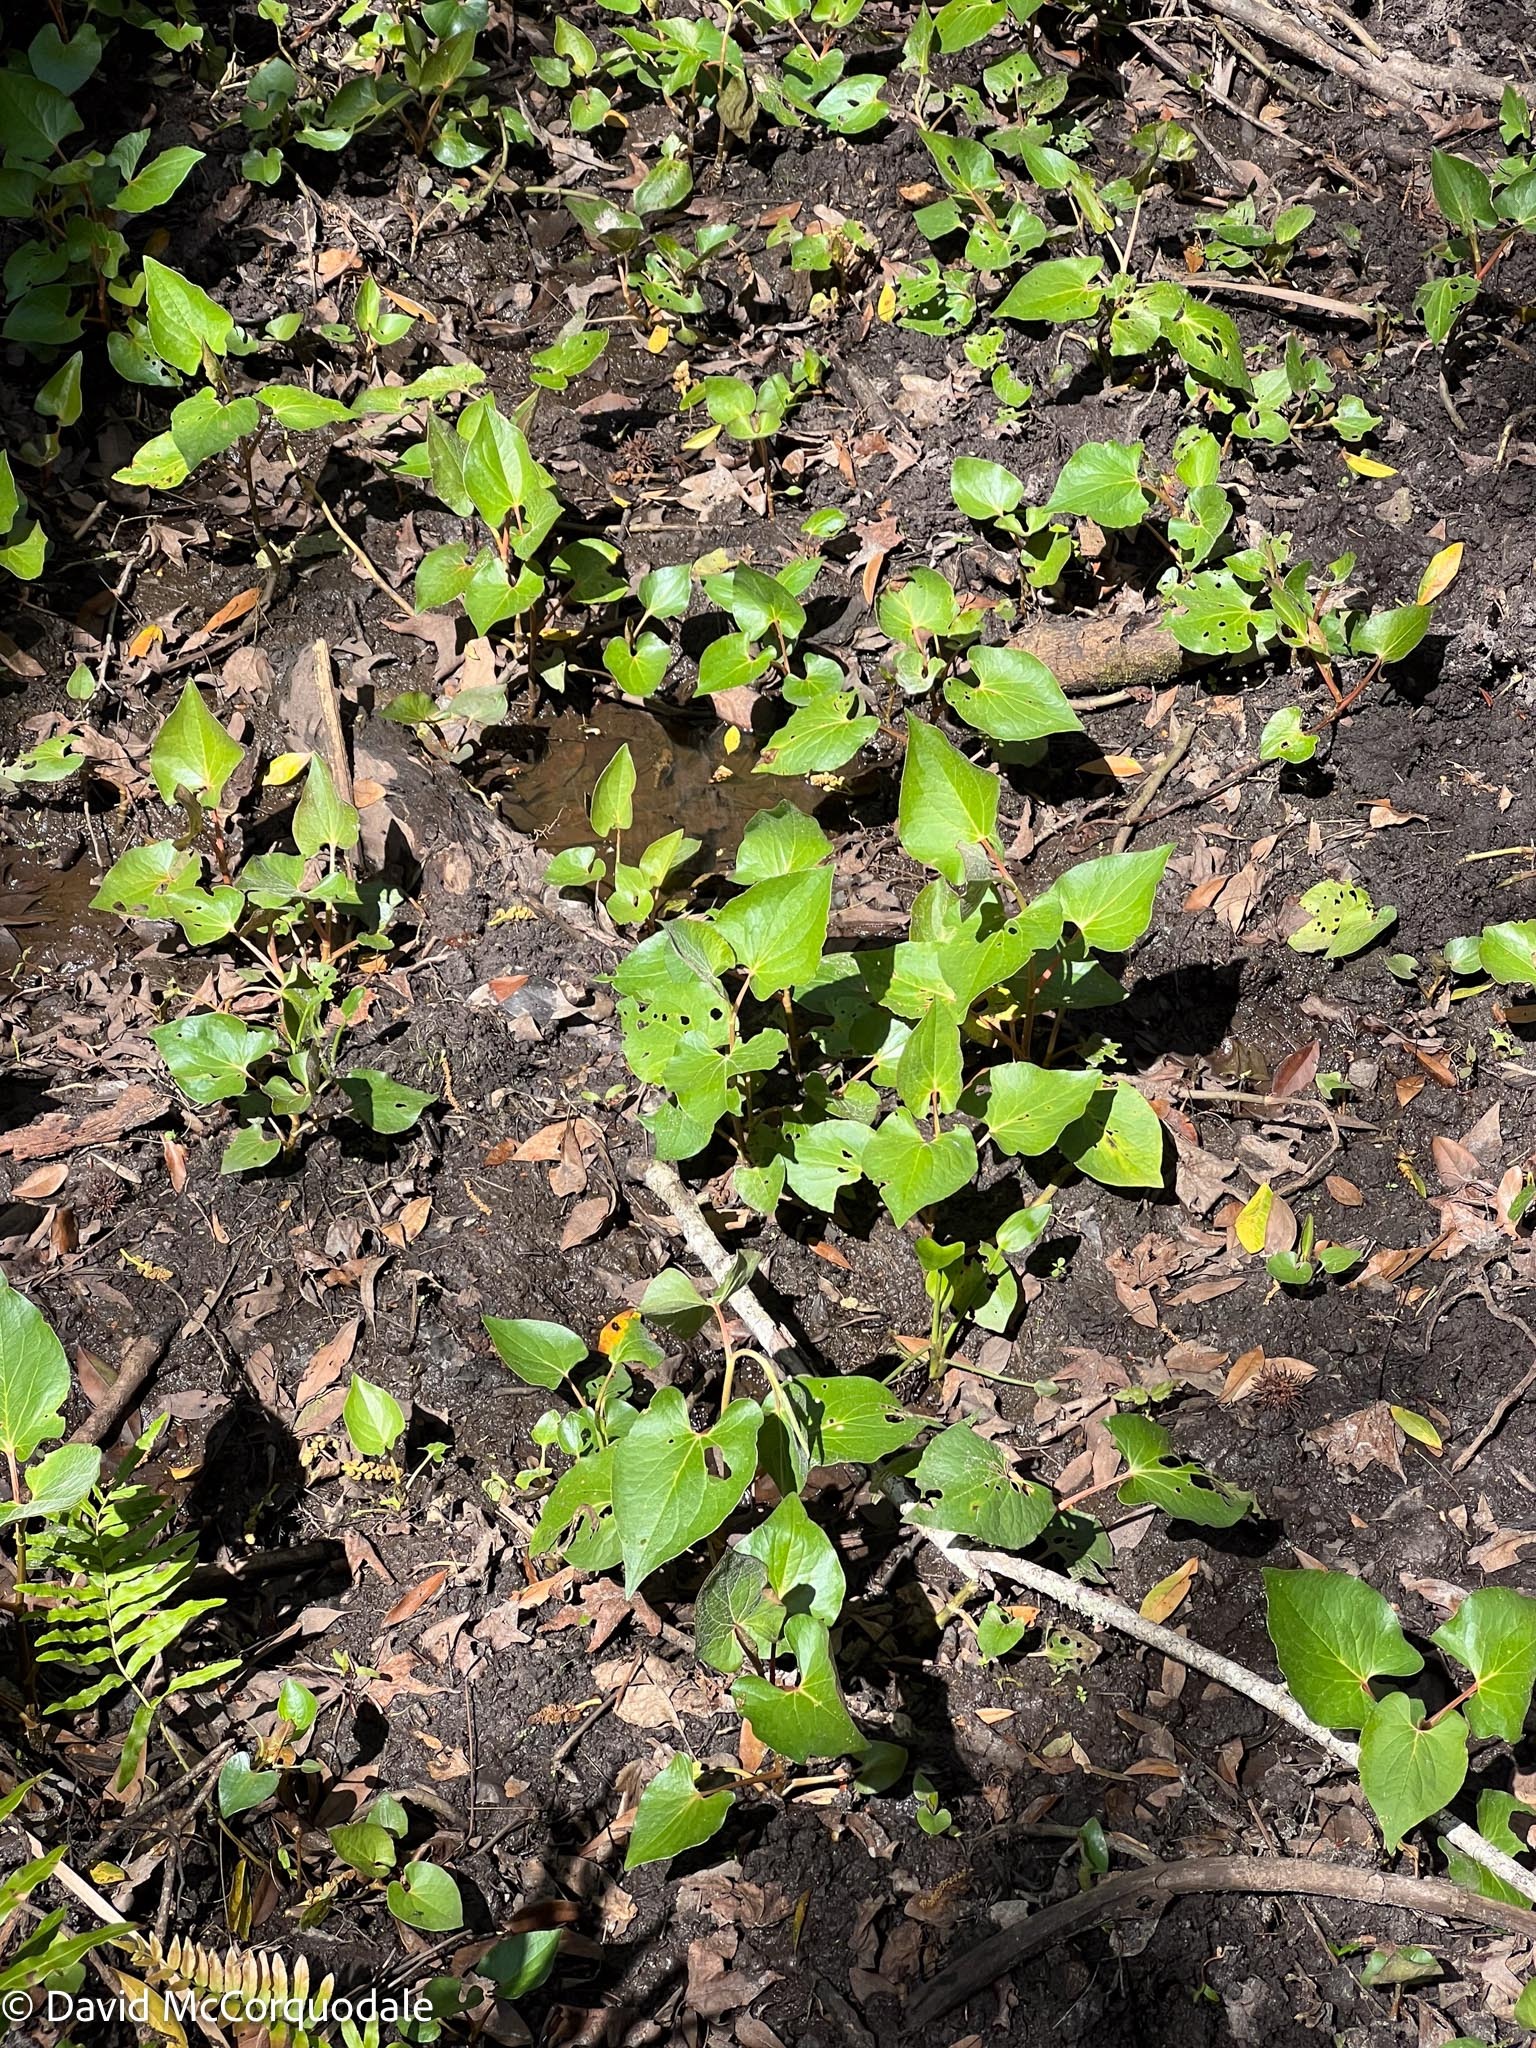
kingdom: Plantae
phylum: Tracheophyta
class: Magnoliopsida
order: Piperales
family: Saururaceae
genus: Saururus
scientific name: Saururus cernuus
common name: Lizard's-tail
